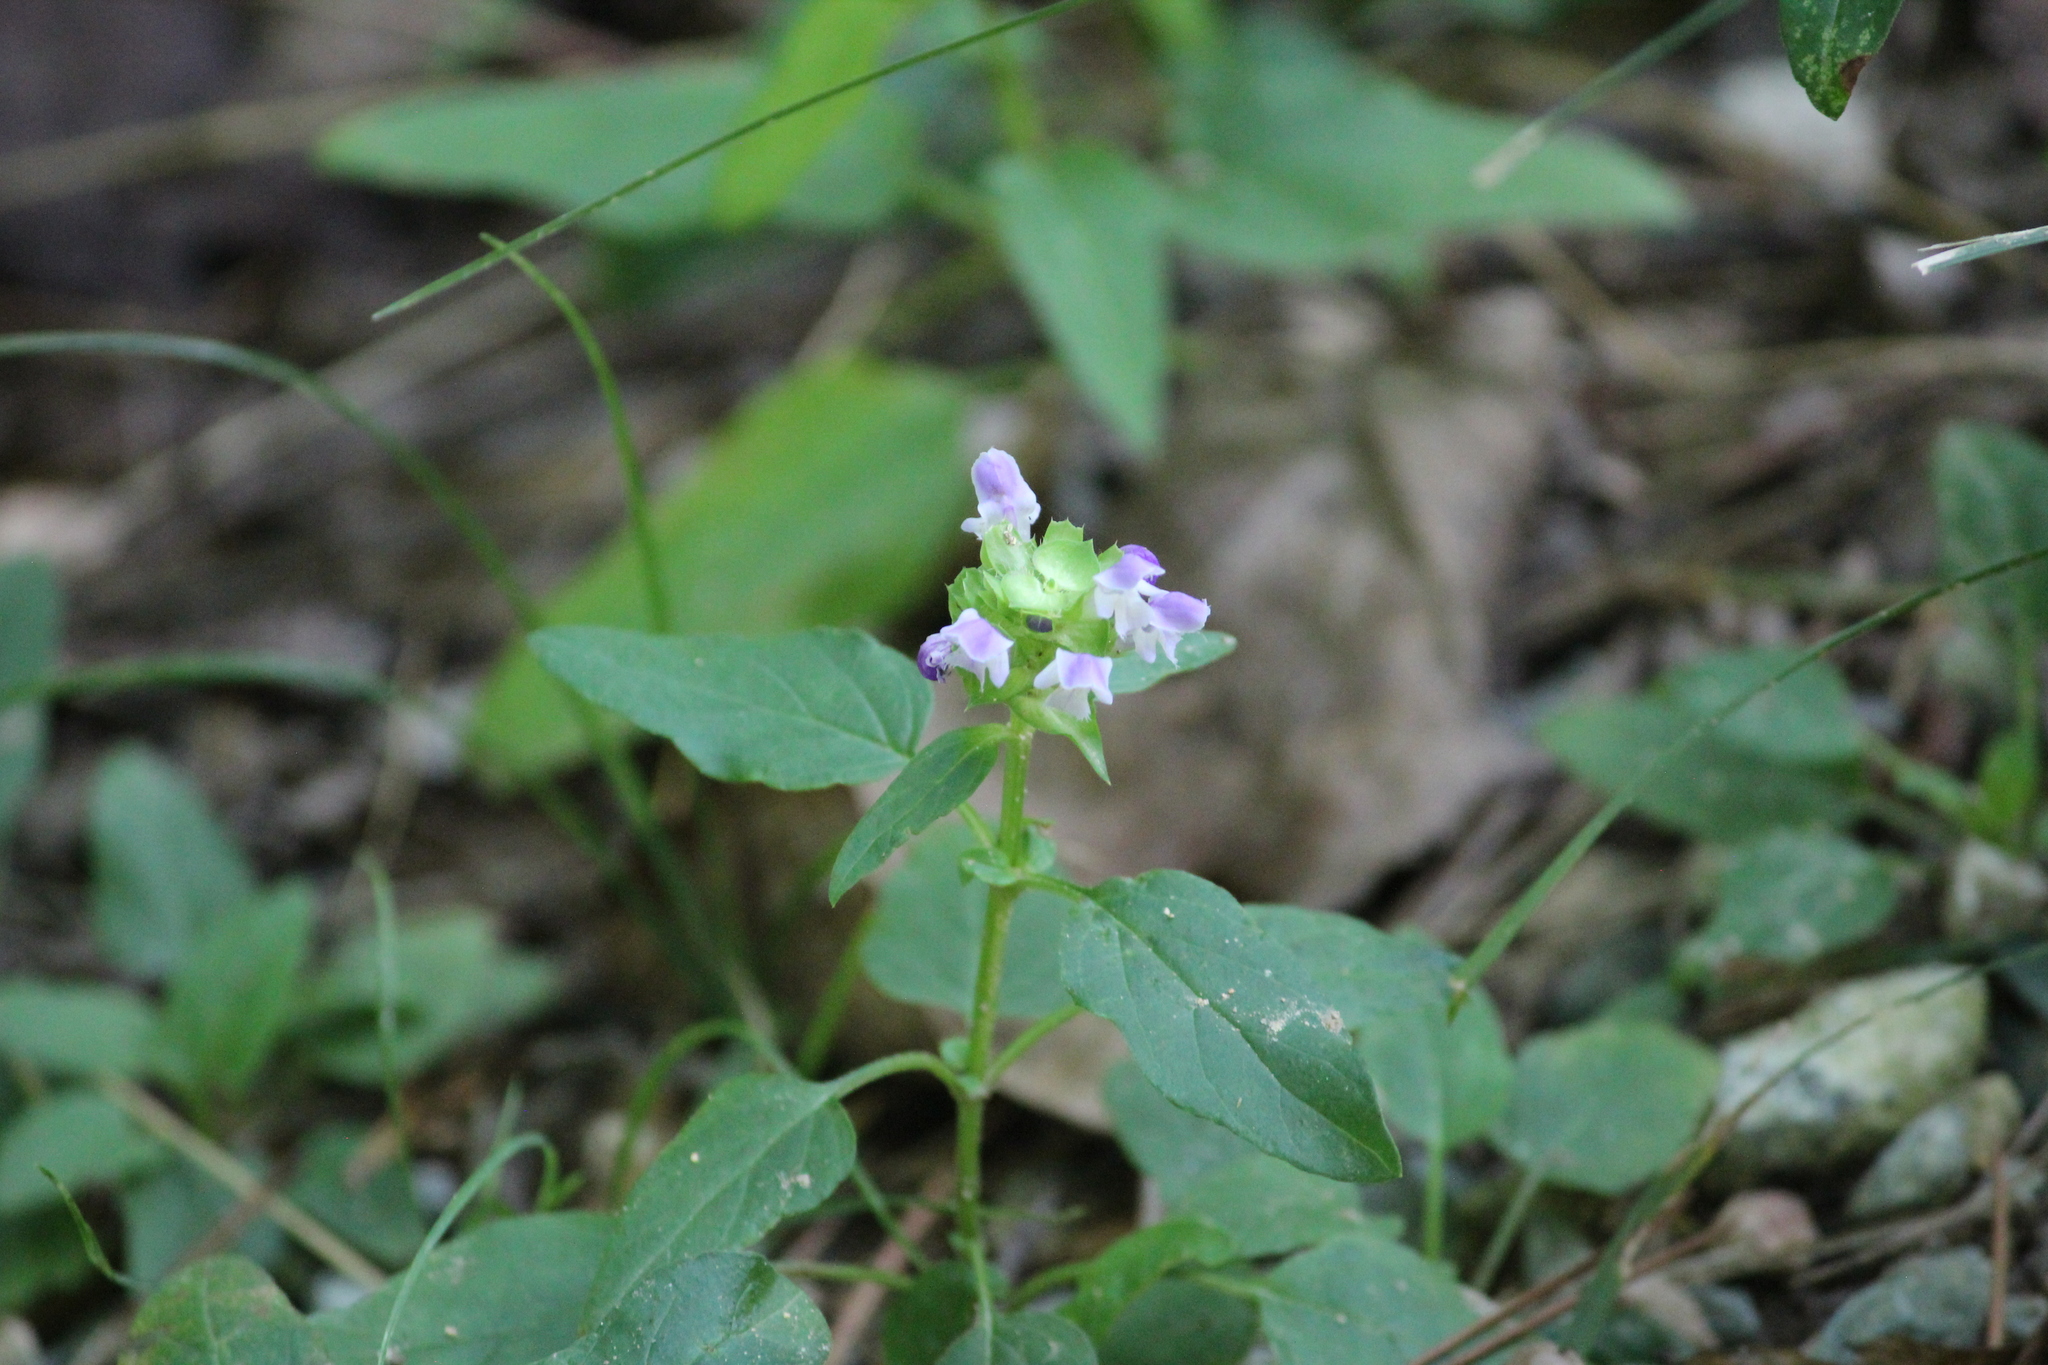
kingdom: Plantae
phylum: Tracheophyta
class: Magnoliopsida
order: Lamiales
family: Lamiaceae
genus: Prunella
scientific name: Prunella vulgaris
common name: Heal-all
